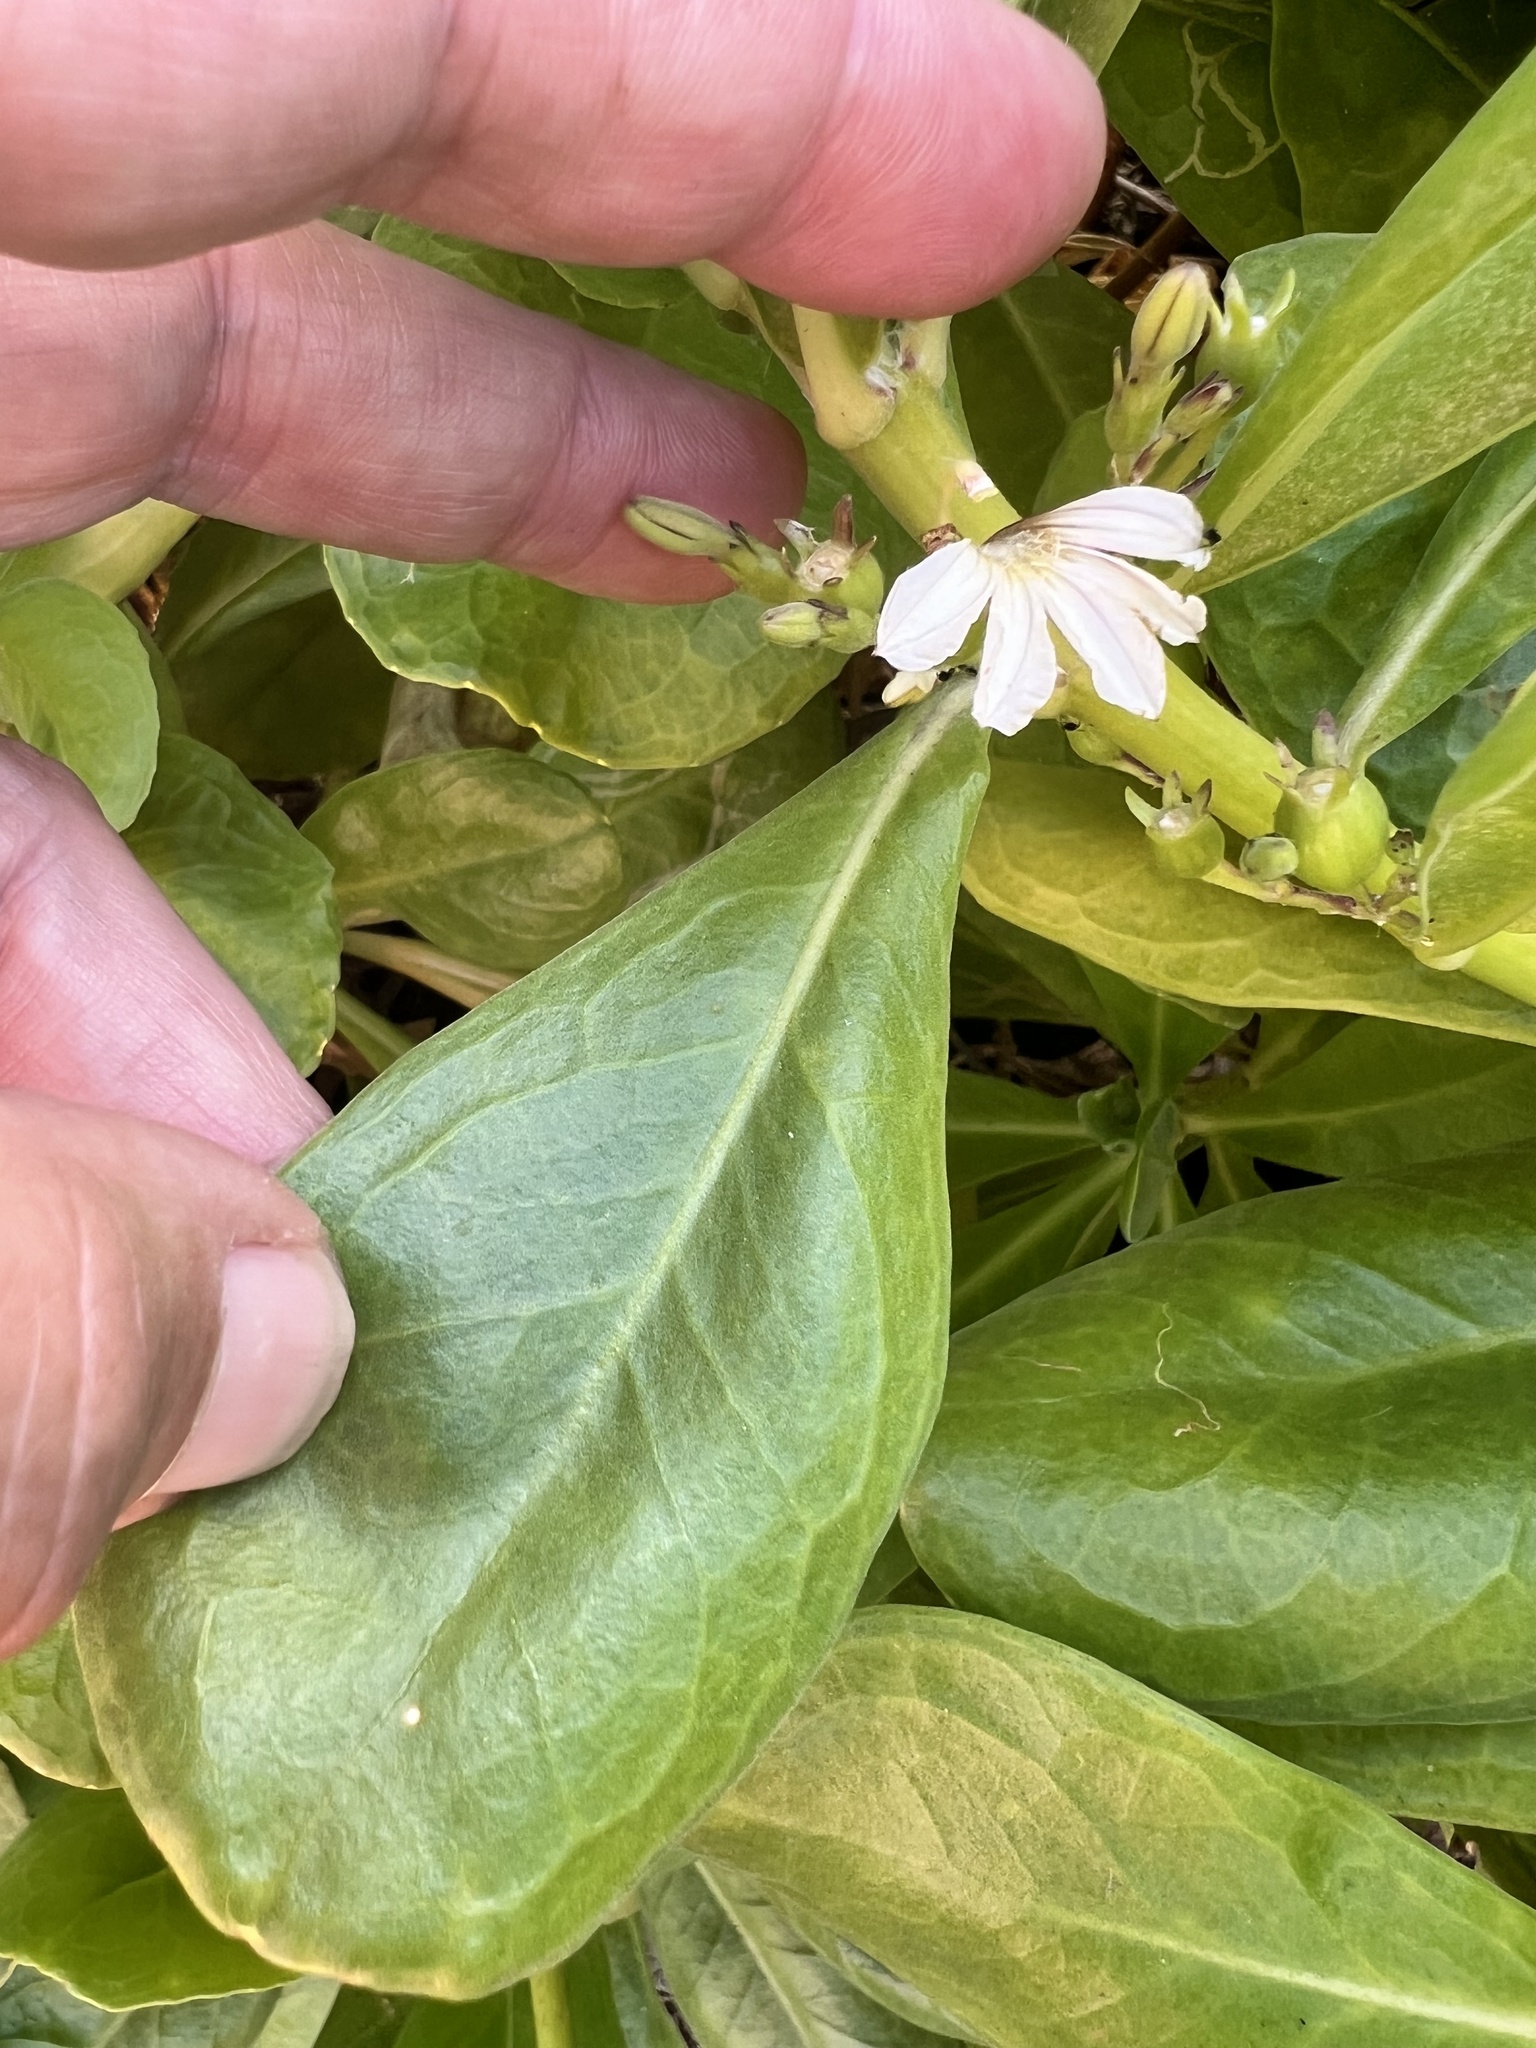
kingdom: Plantae
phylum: Tracheophyta
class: Magnoliopsida
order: Asterales
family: Goodeniaceae
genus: Scaevola
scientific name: Scaevola taccada
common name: Sea lettucetree
